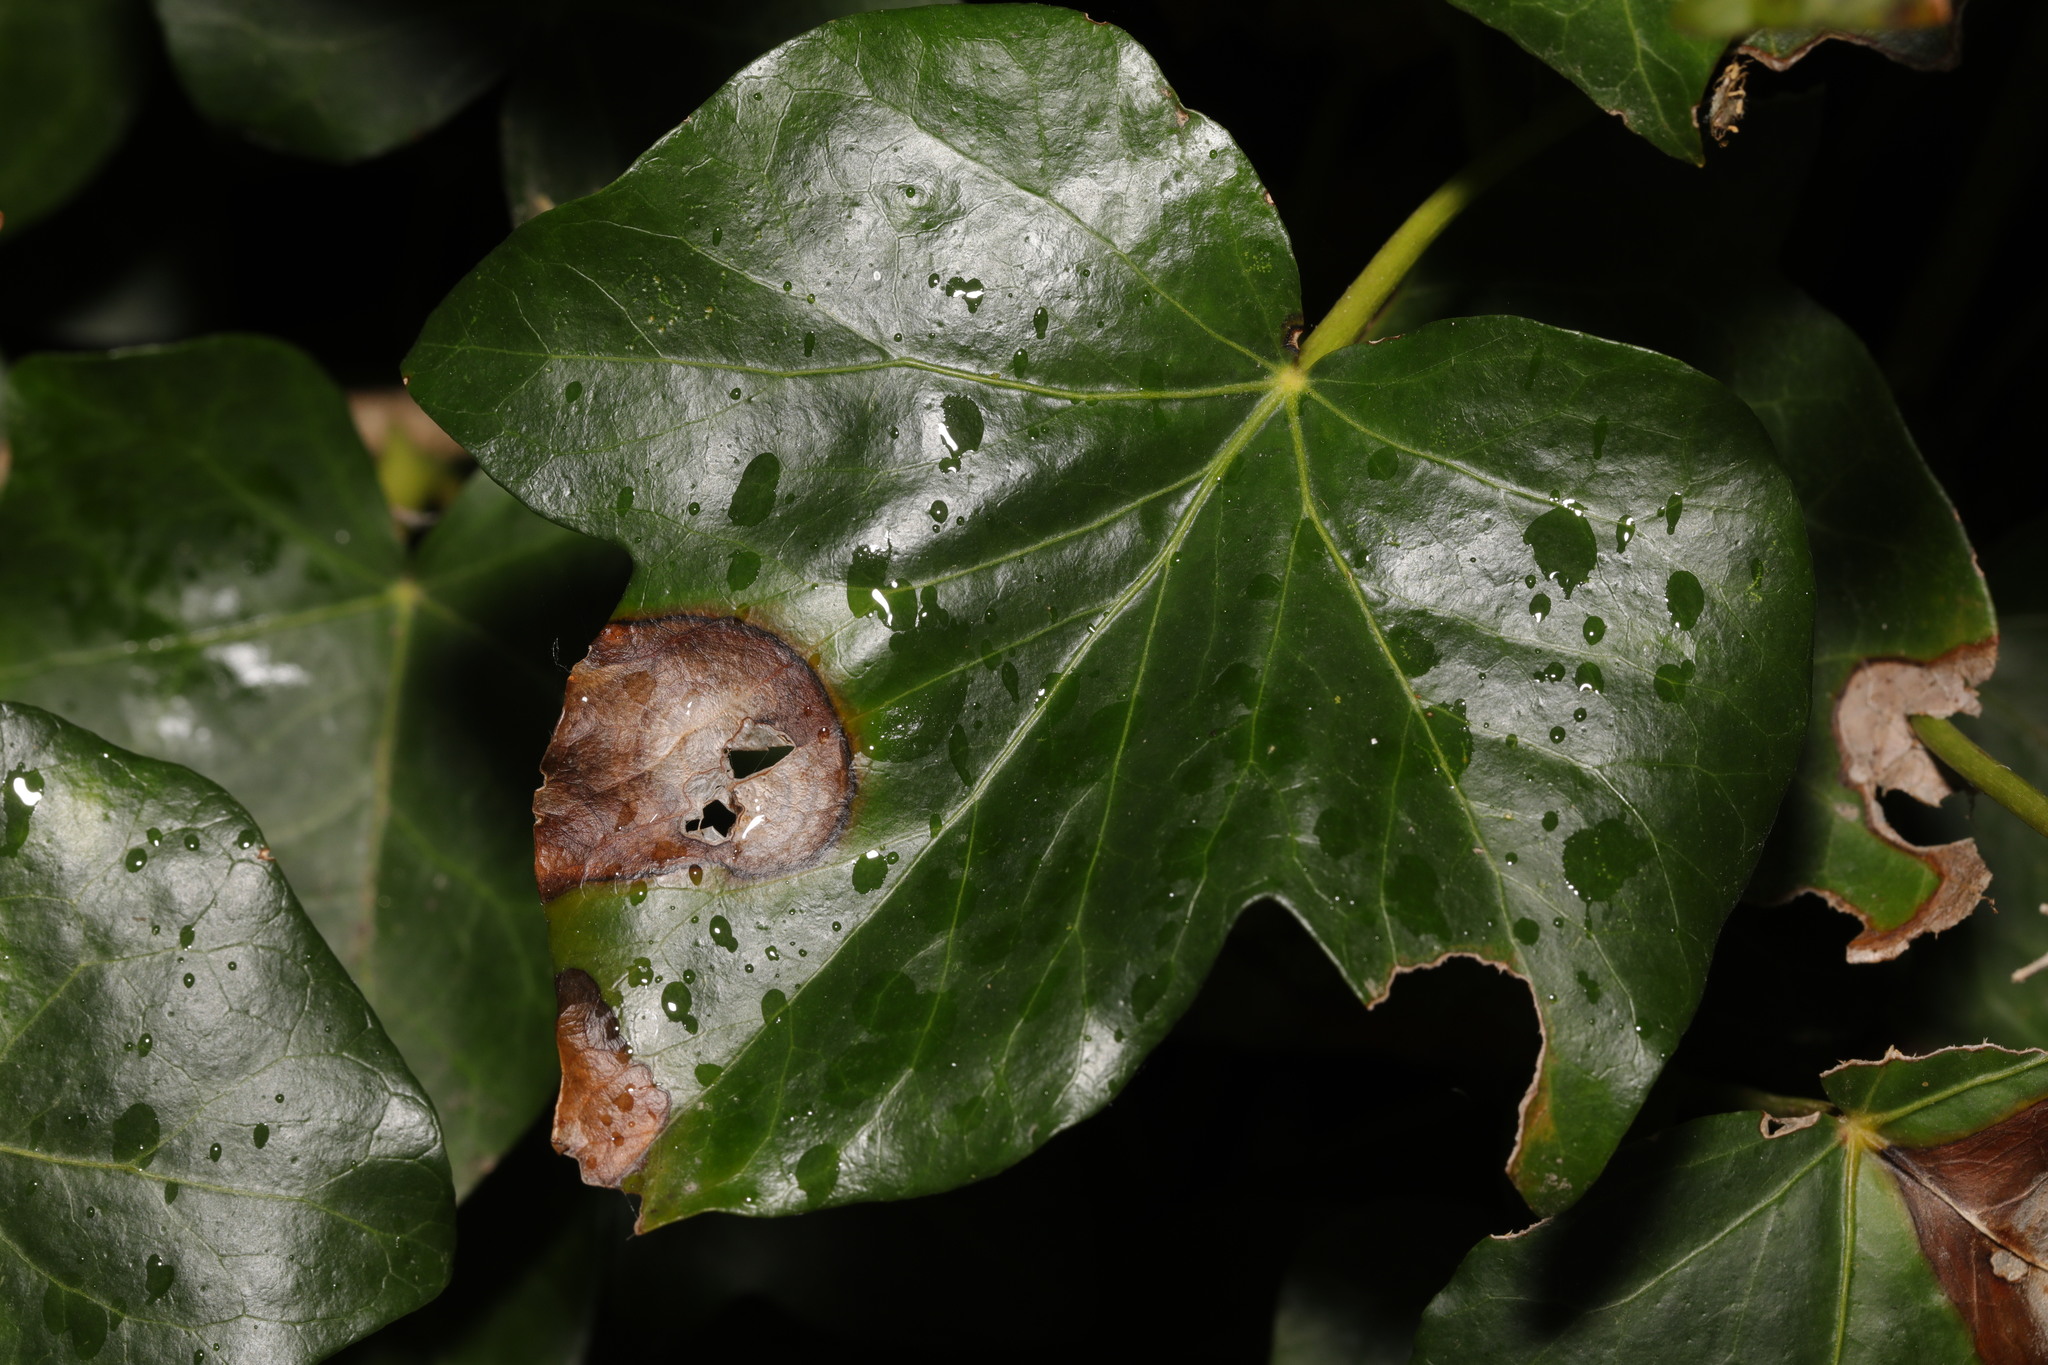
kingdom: Fungi
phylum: Ascomycota
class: Dothideomycetes
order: Pleosporales
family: Didymellaceae
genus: Boeremia
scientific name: Boeremia hedericola
